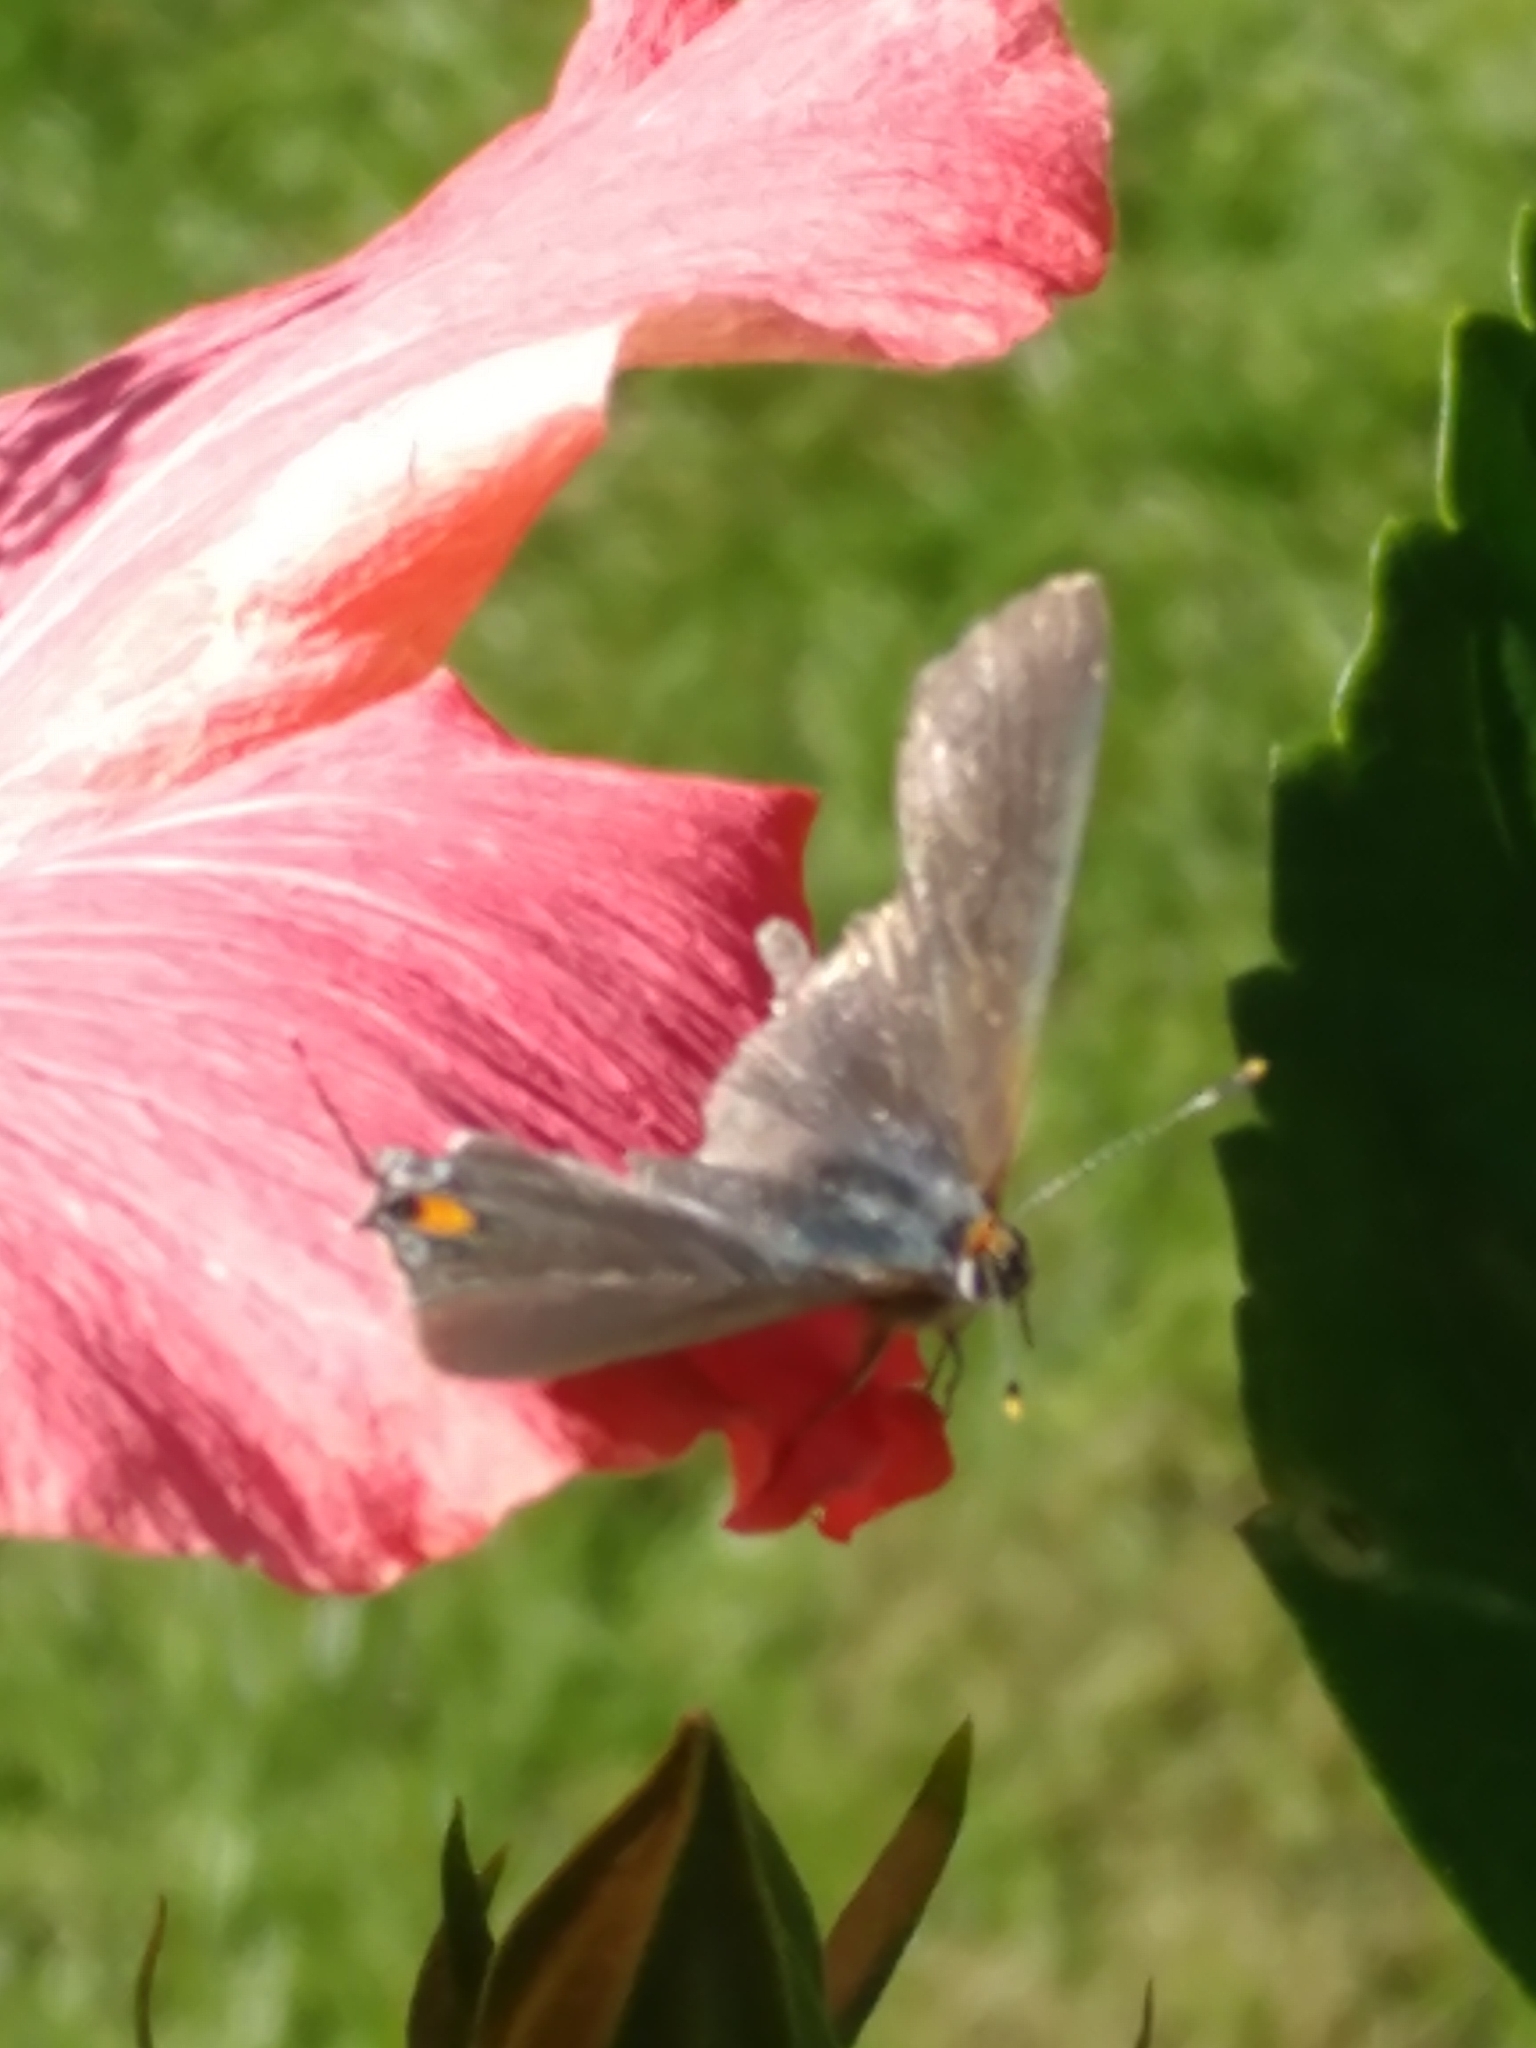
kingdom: Animalia
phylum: Arthropoda
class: Insecta
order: Lepidoptera
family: Lycaenidae
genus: Strymon
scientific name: Strymon melinus
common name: Gray hairstreak
